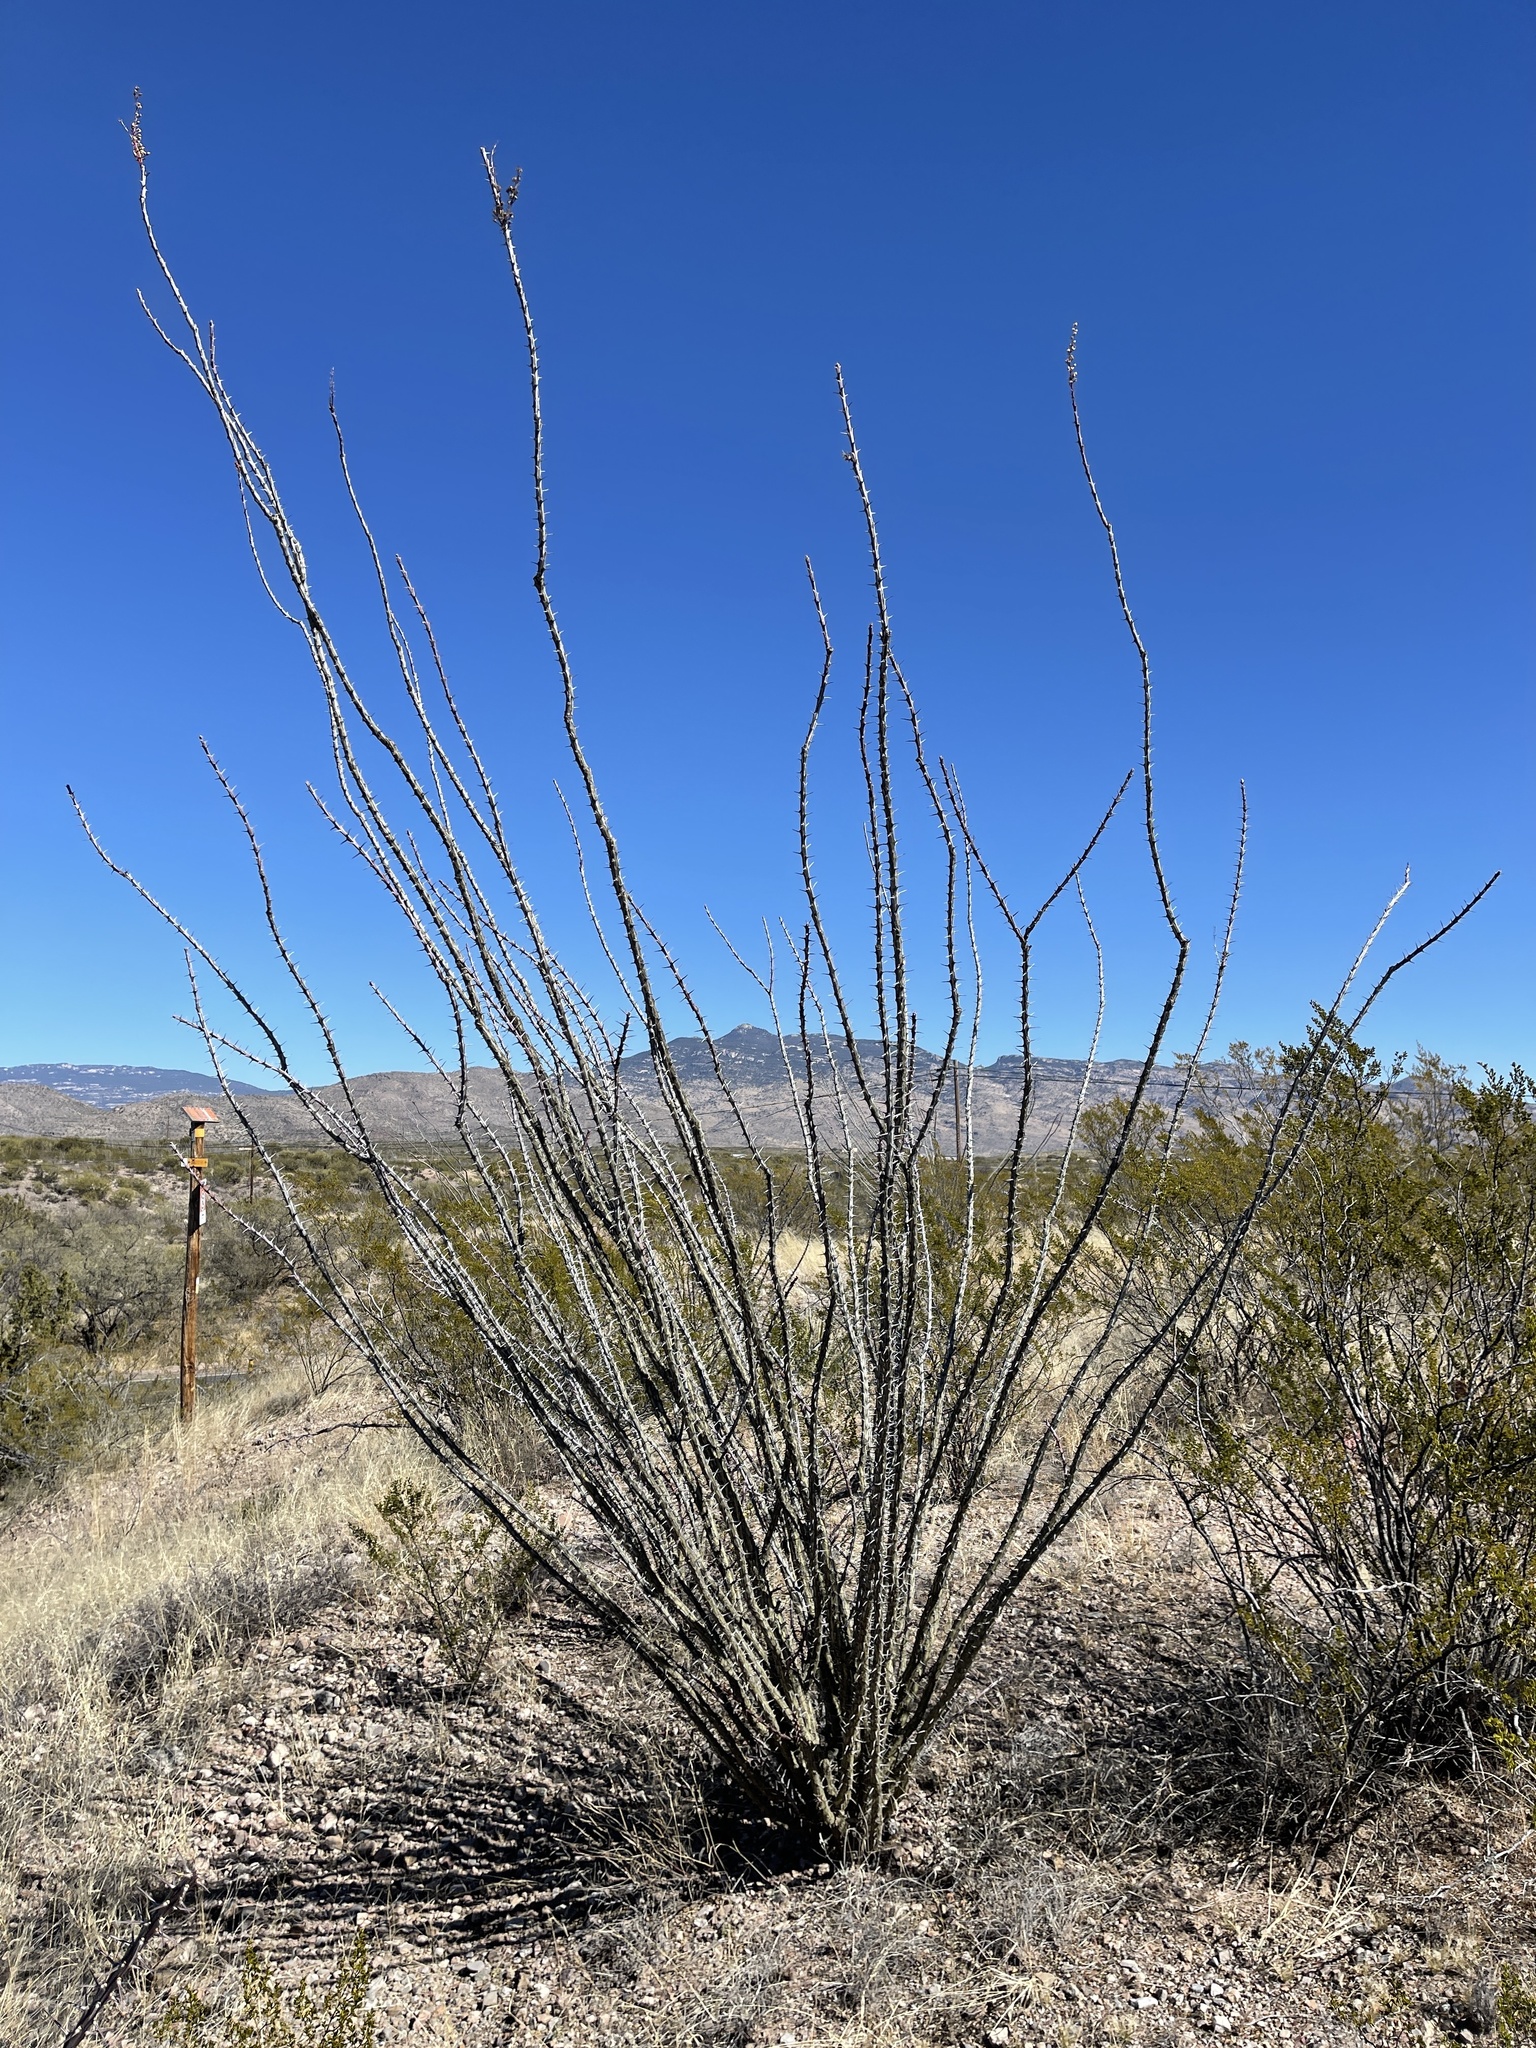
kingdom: Plantae
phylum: Tracheophyta
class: Magnoliopsida
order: Ericales
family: Fouquieriaceae
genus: Fouquieria
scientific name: Fouquieria splendens
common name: Vine-cactus
